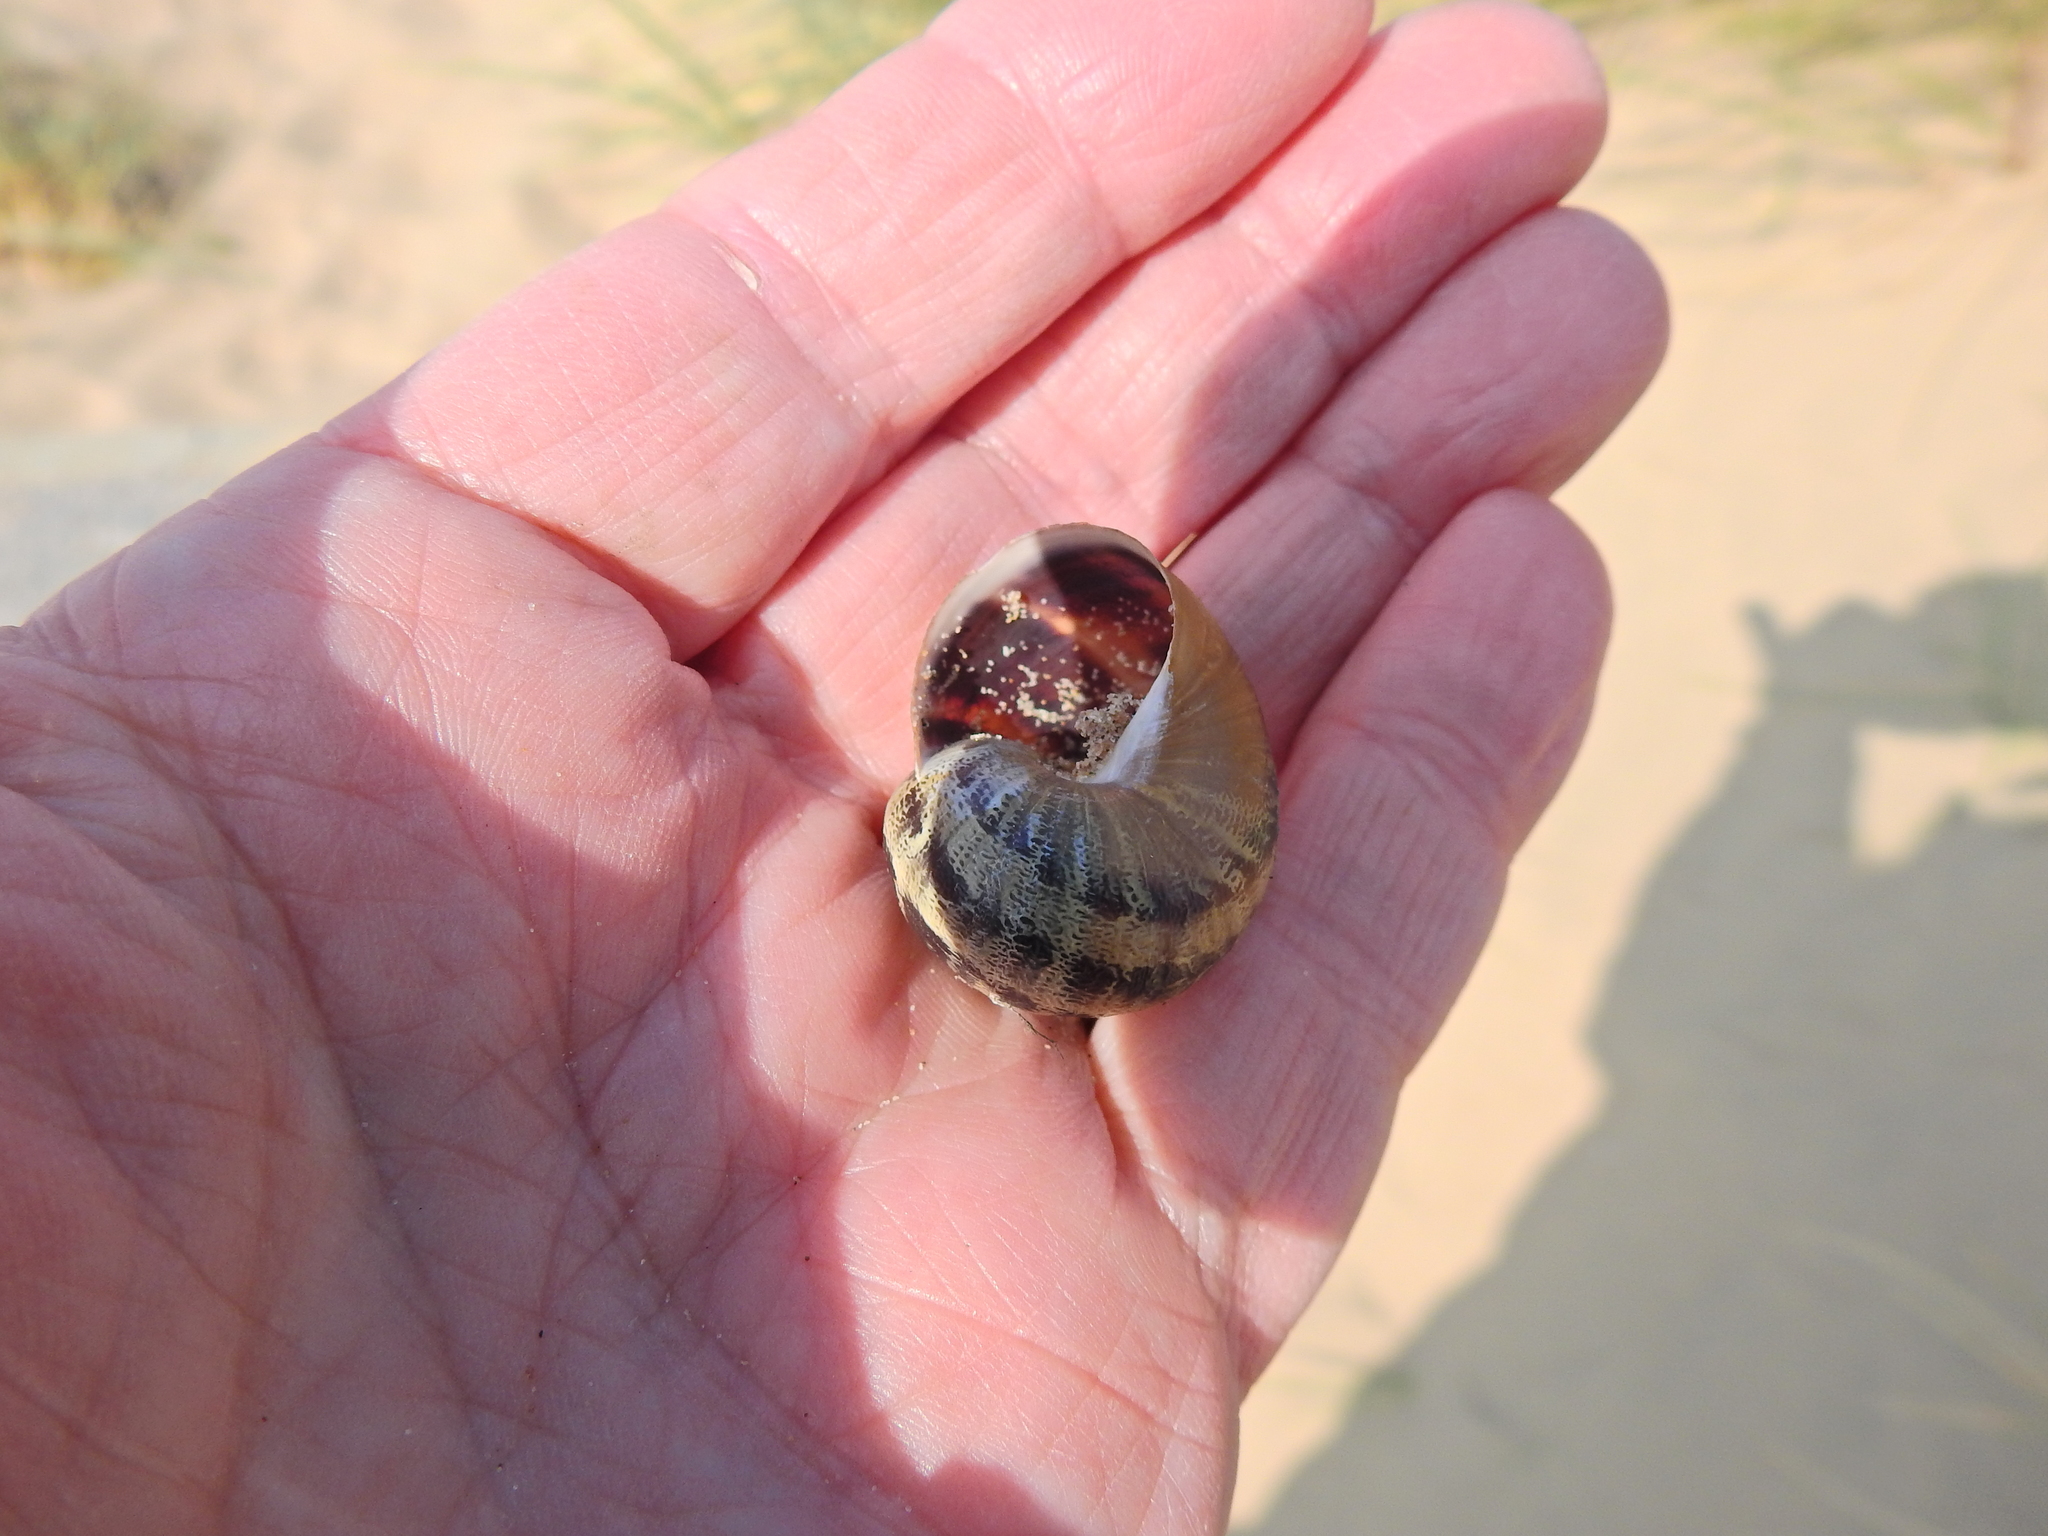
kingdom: Animalia
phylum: Mollusca
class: Gastropoda
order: Stylommatophora
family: Helicidae
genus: Cornu
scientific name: Cornu aspersum
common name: Brown garden snail
